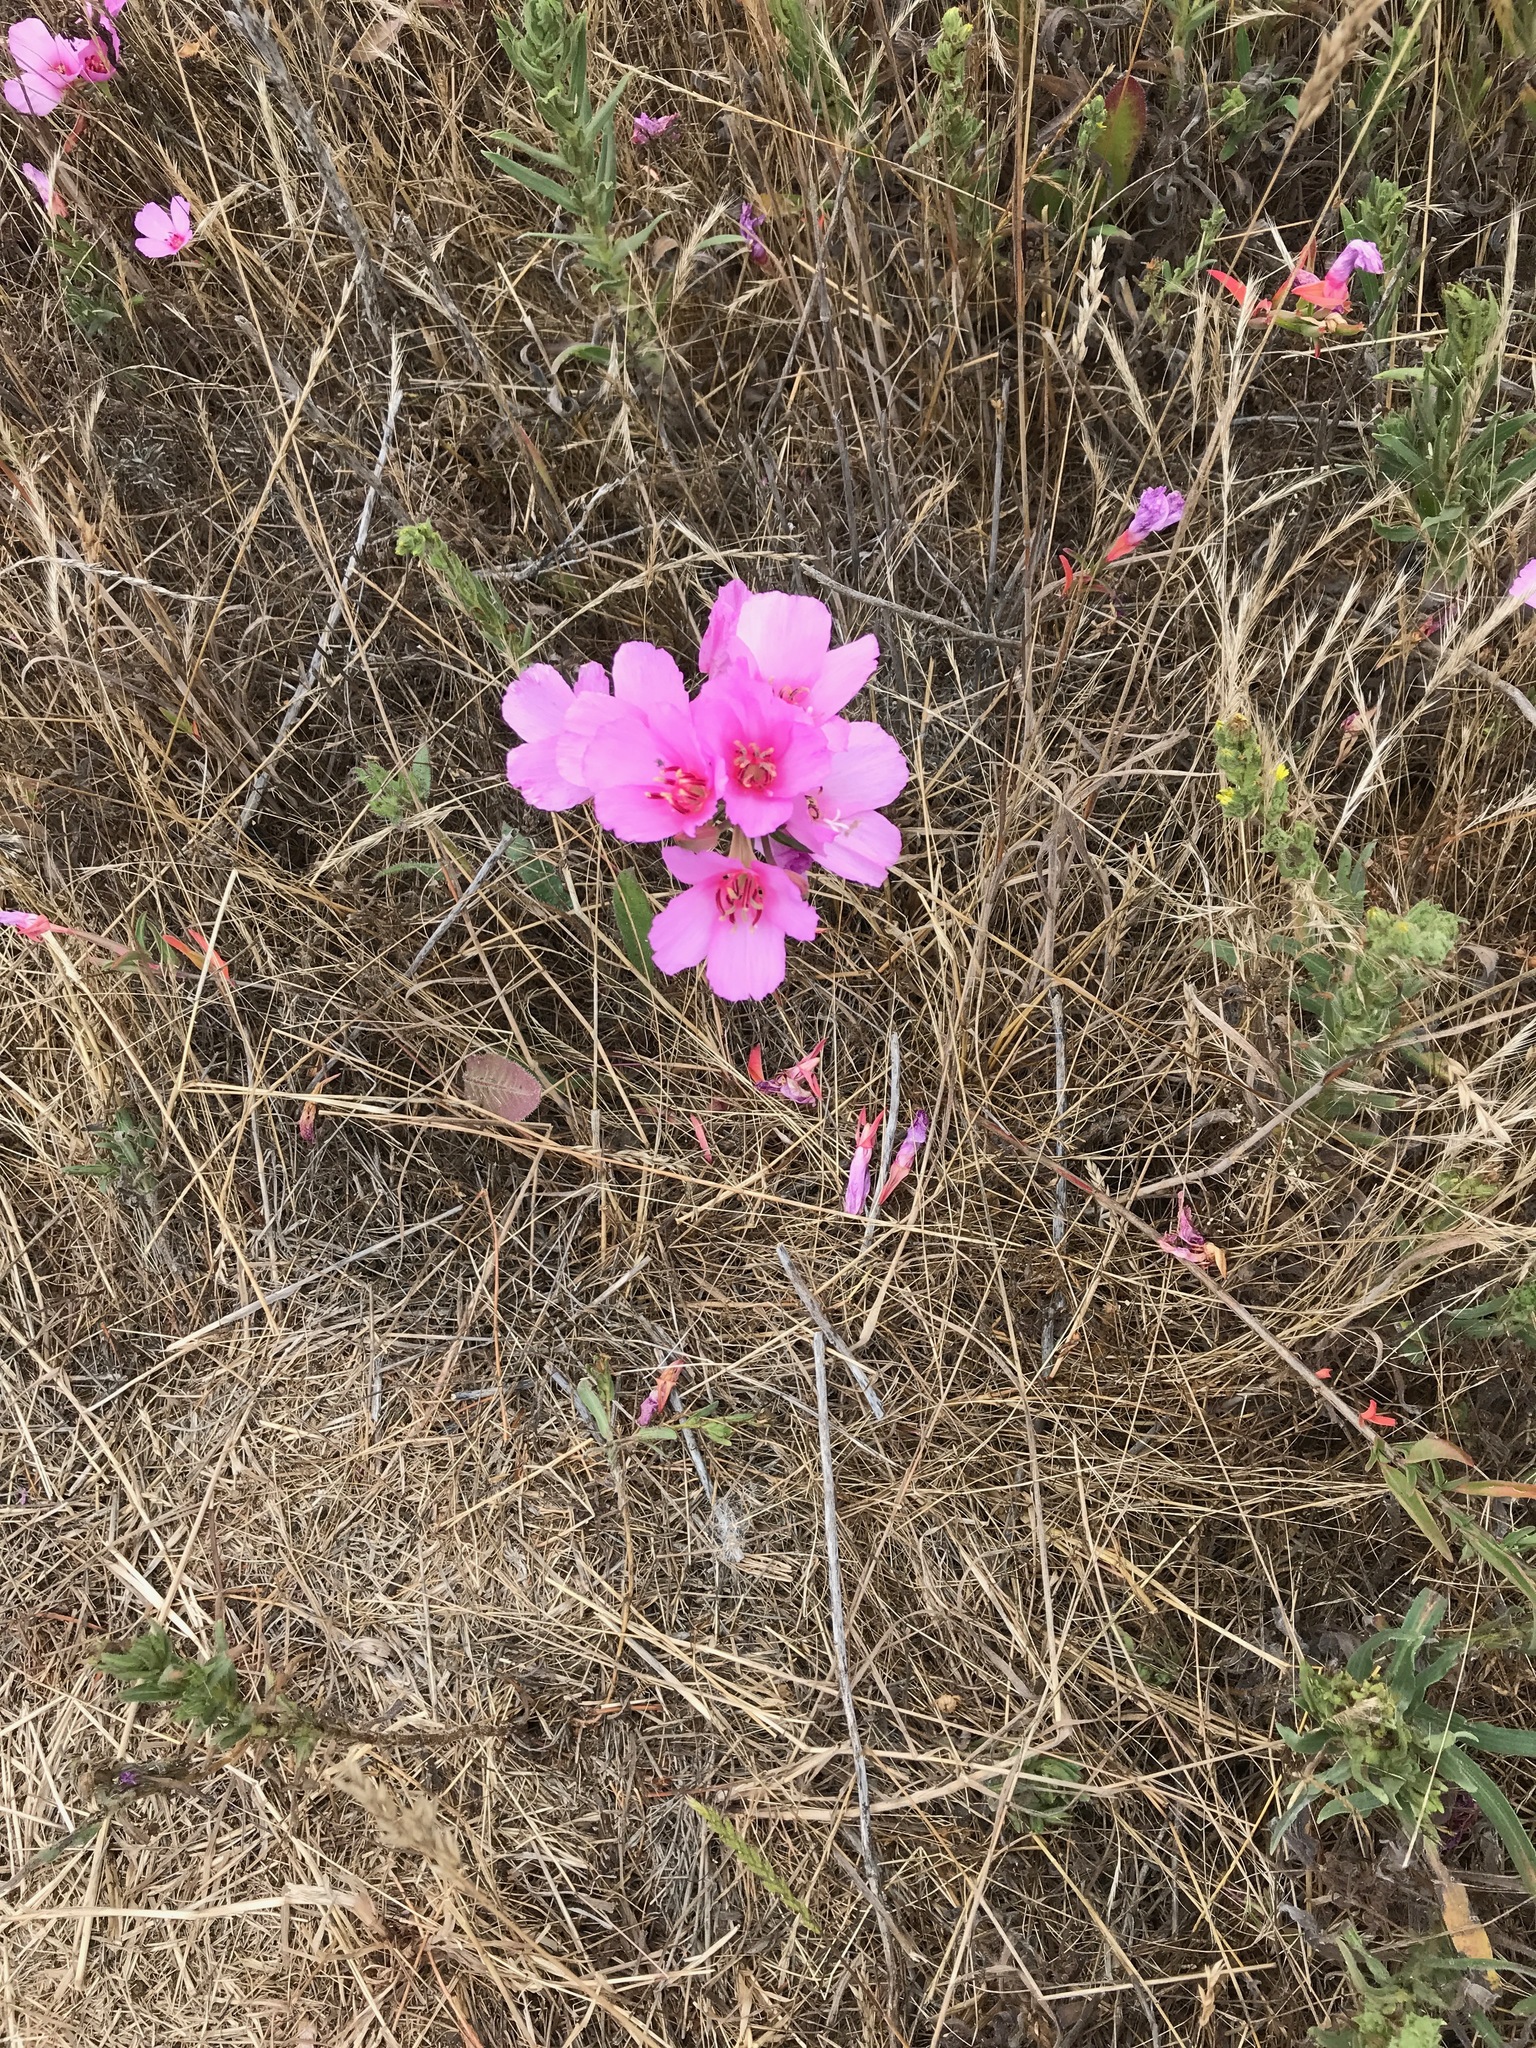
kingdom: Plantae
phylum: Tracheophyta
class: Magnoliopsida
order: Myrtales
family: Onagraceae
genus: Clarkia
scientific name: Clarkia rubicunda
